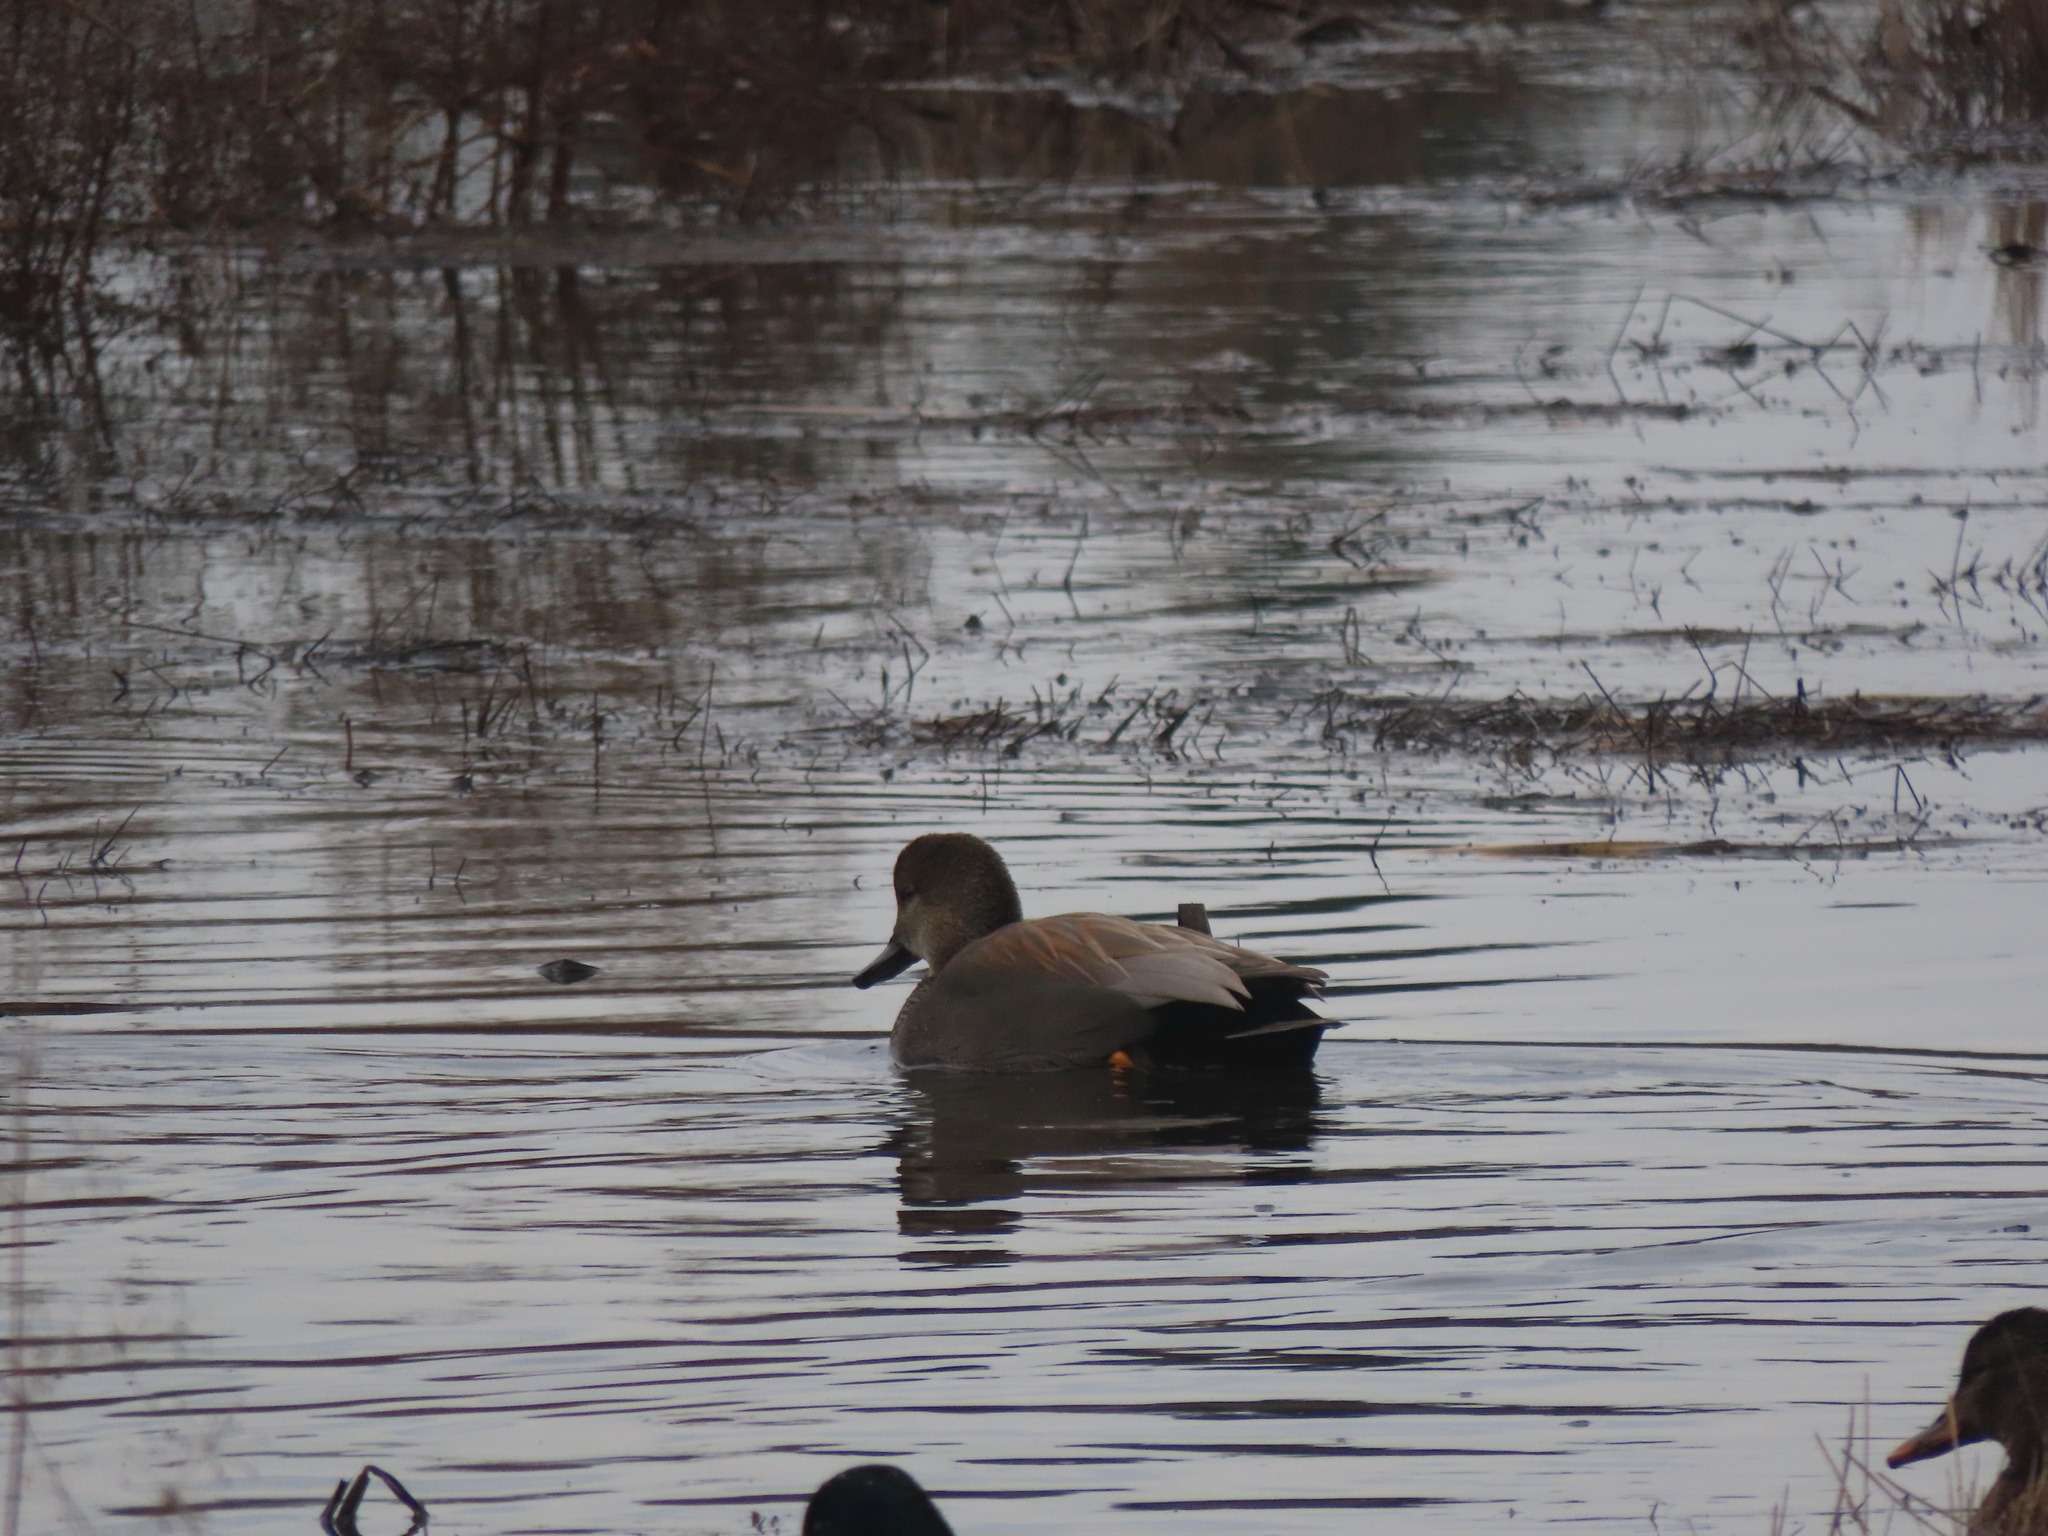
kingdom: Animalia
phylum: Chordata
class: Aves
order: Anseriformes
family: Anatidae
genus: Mareca
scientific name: Mareca strepera
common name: Gadwall
